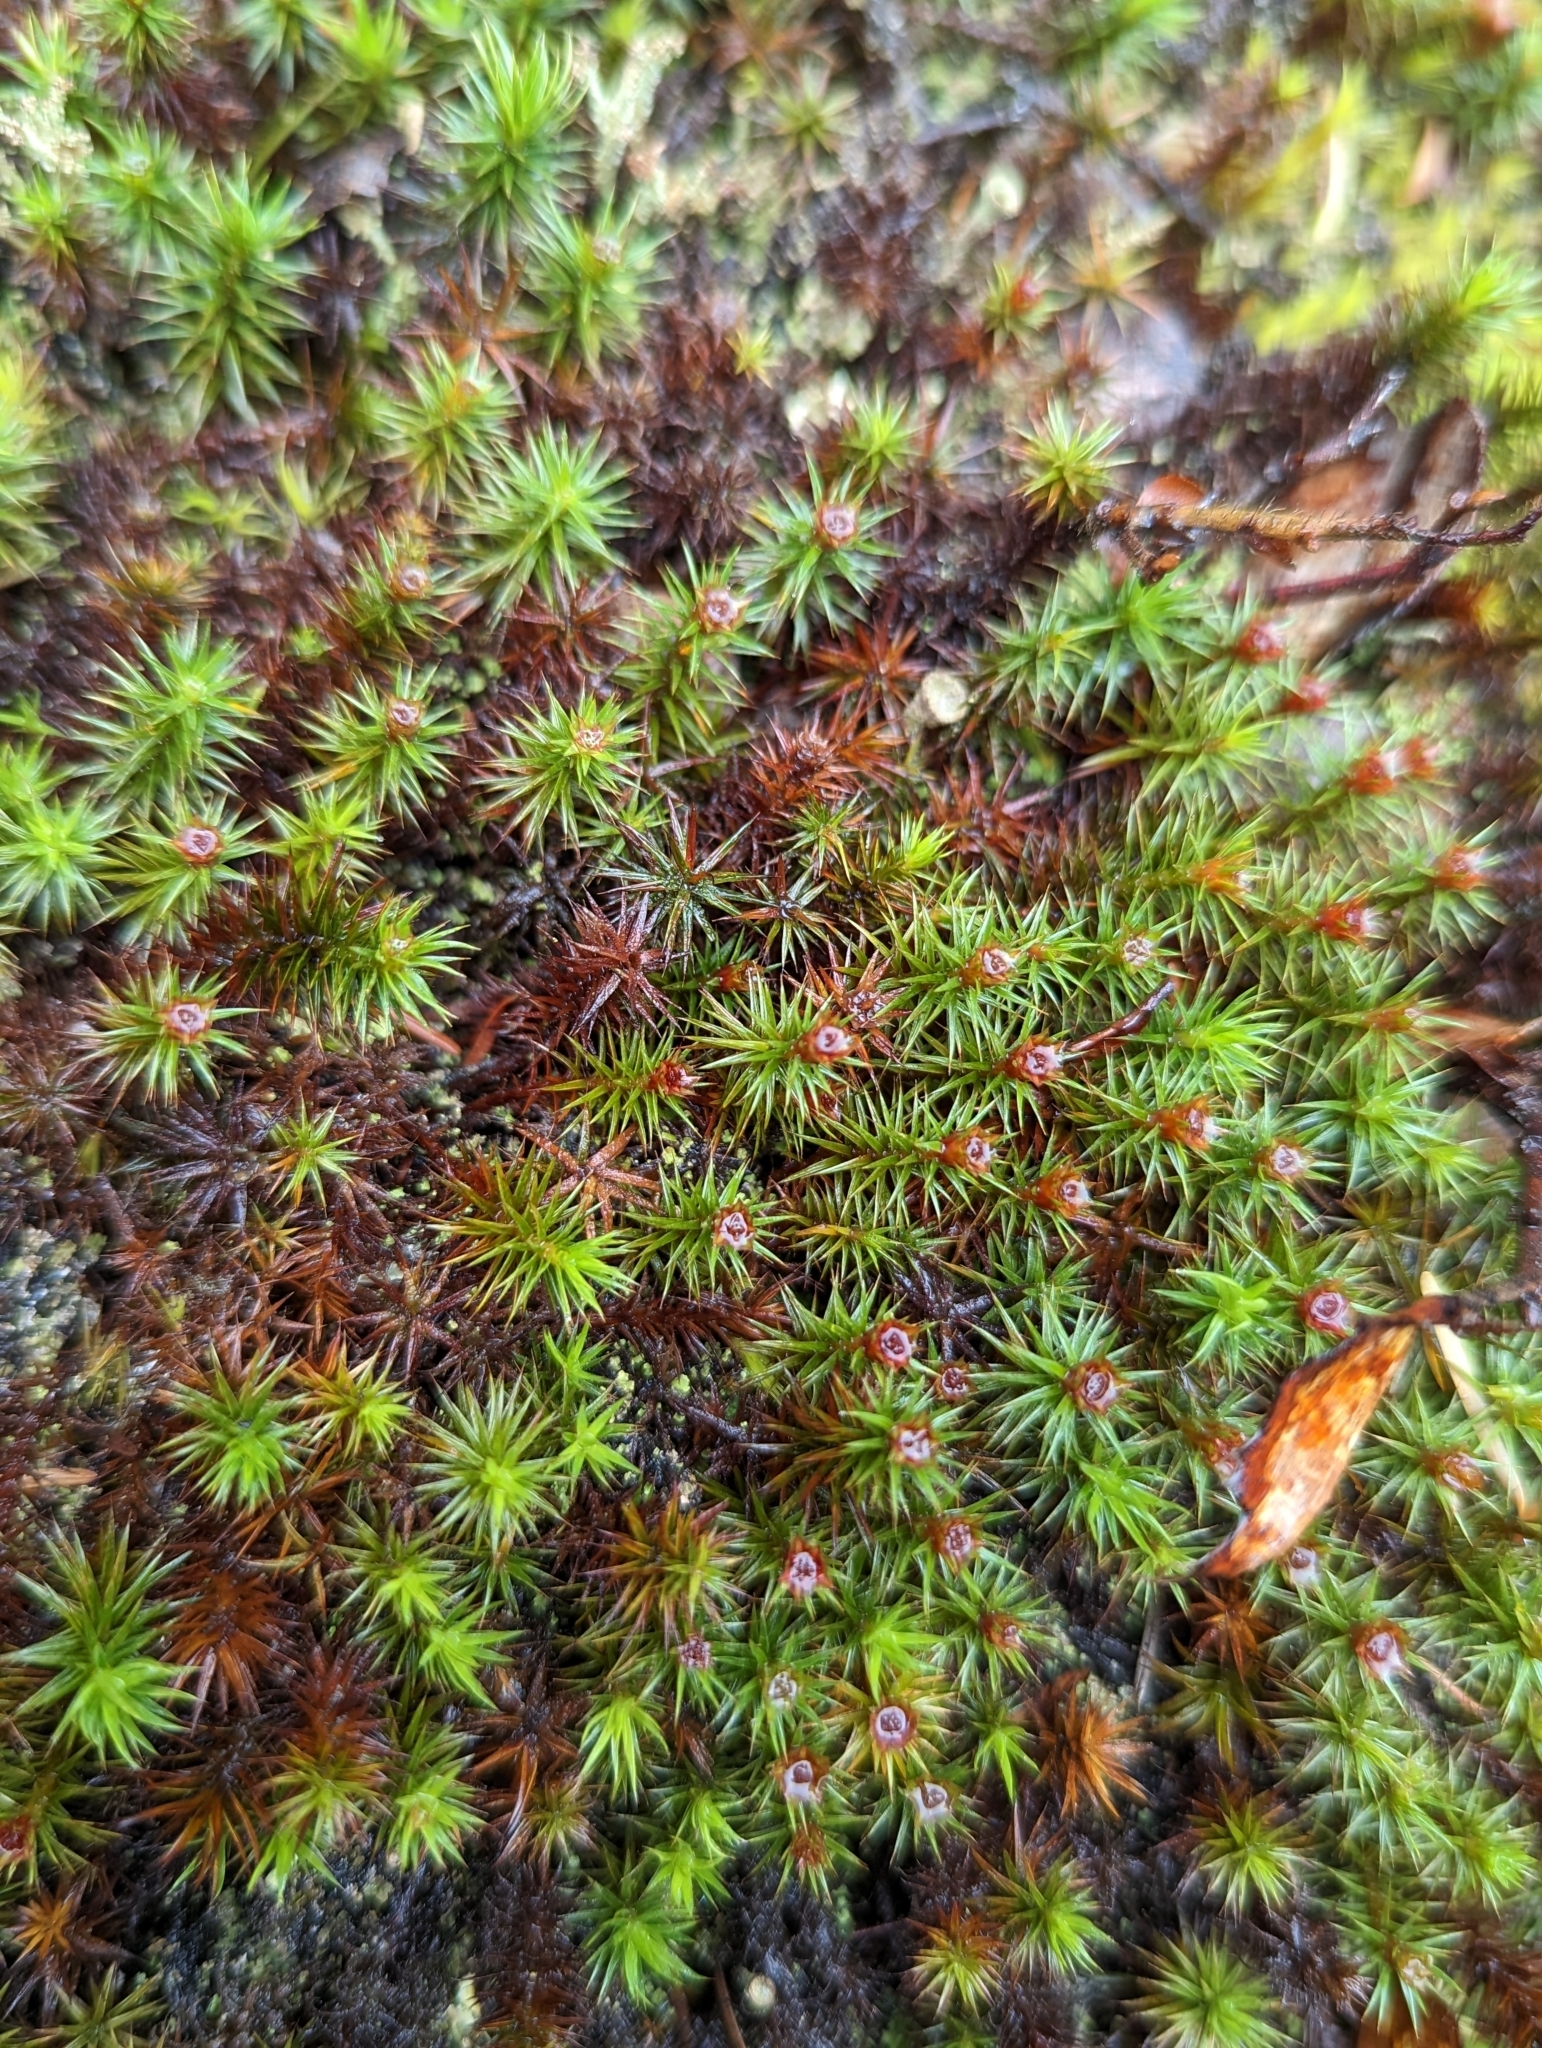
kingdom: Plantae
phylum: Bryophyta
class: Polytrichopsida
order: Polytrichales
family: Polytrichaceae
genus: Polytrichum
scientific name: Polytrichum juniperinum
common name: Juniper haircap moss
